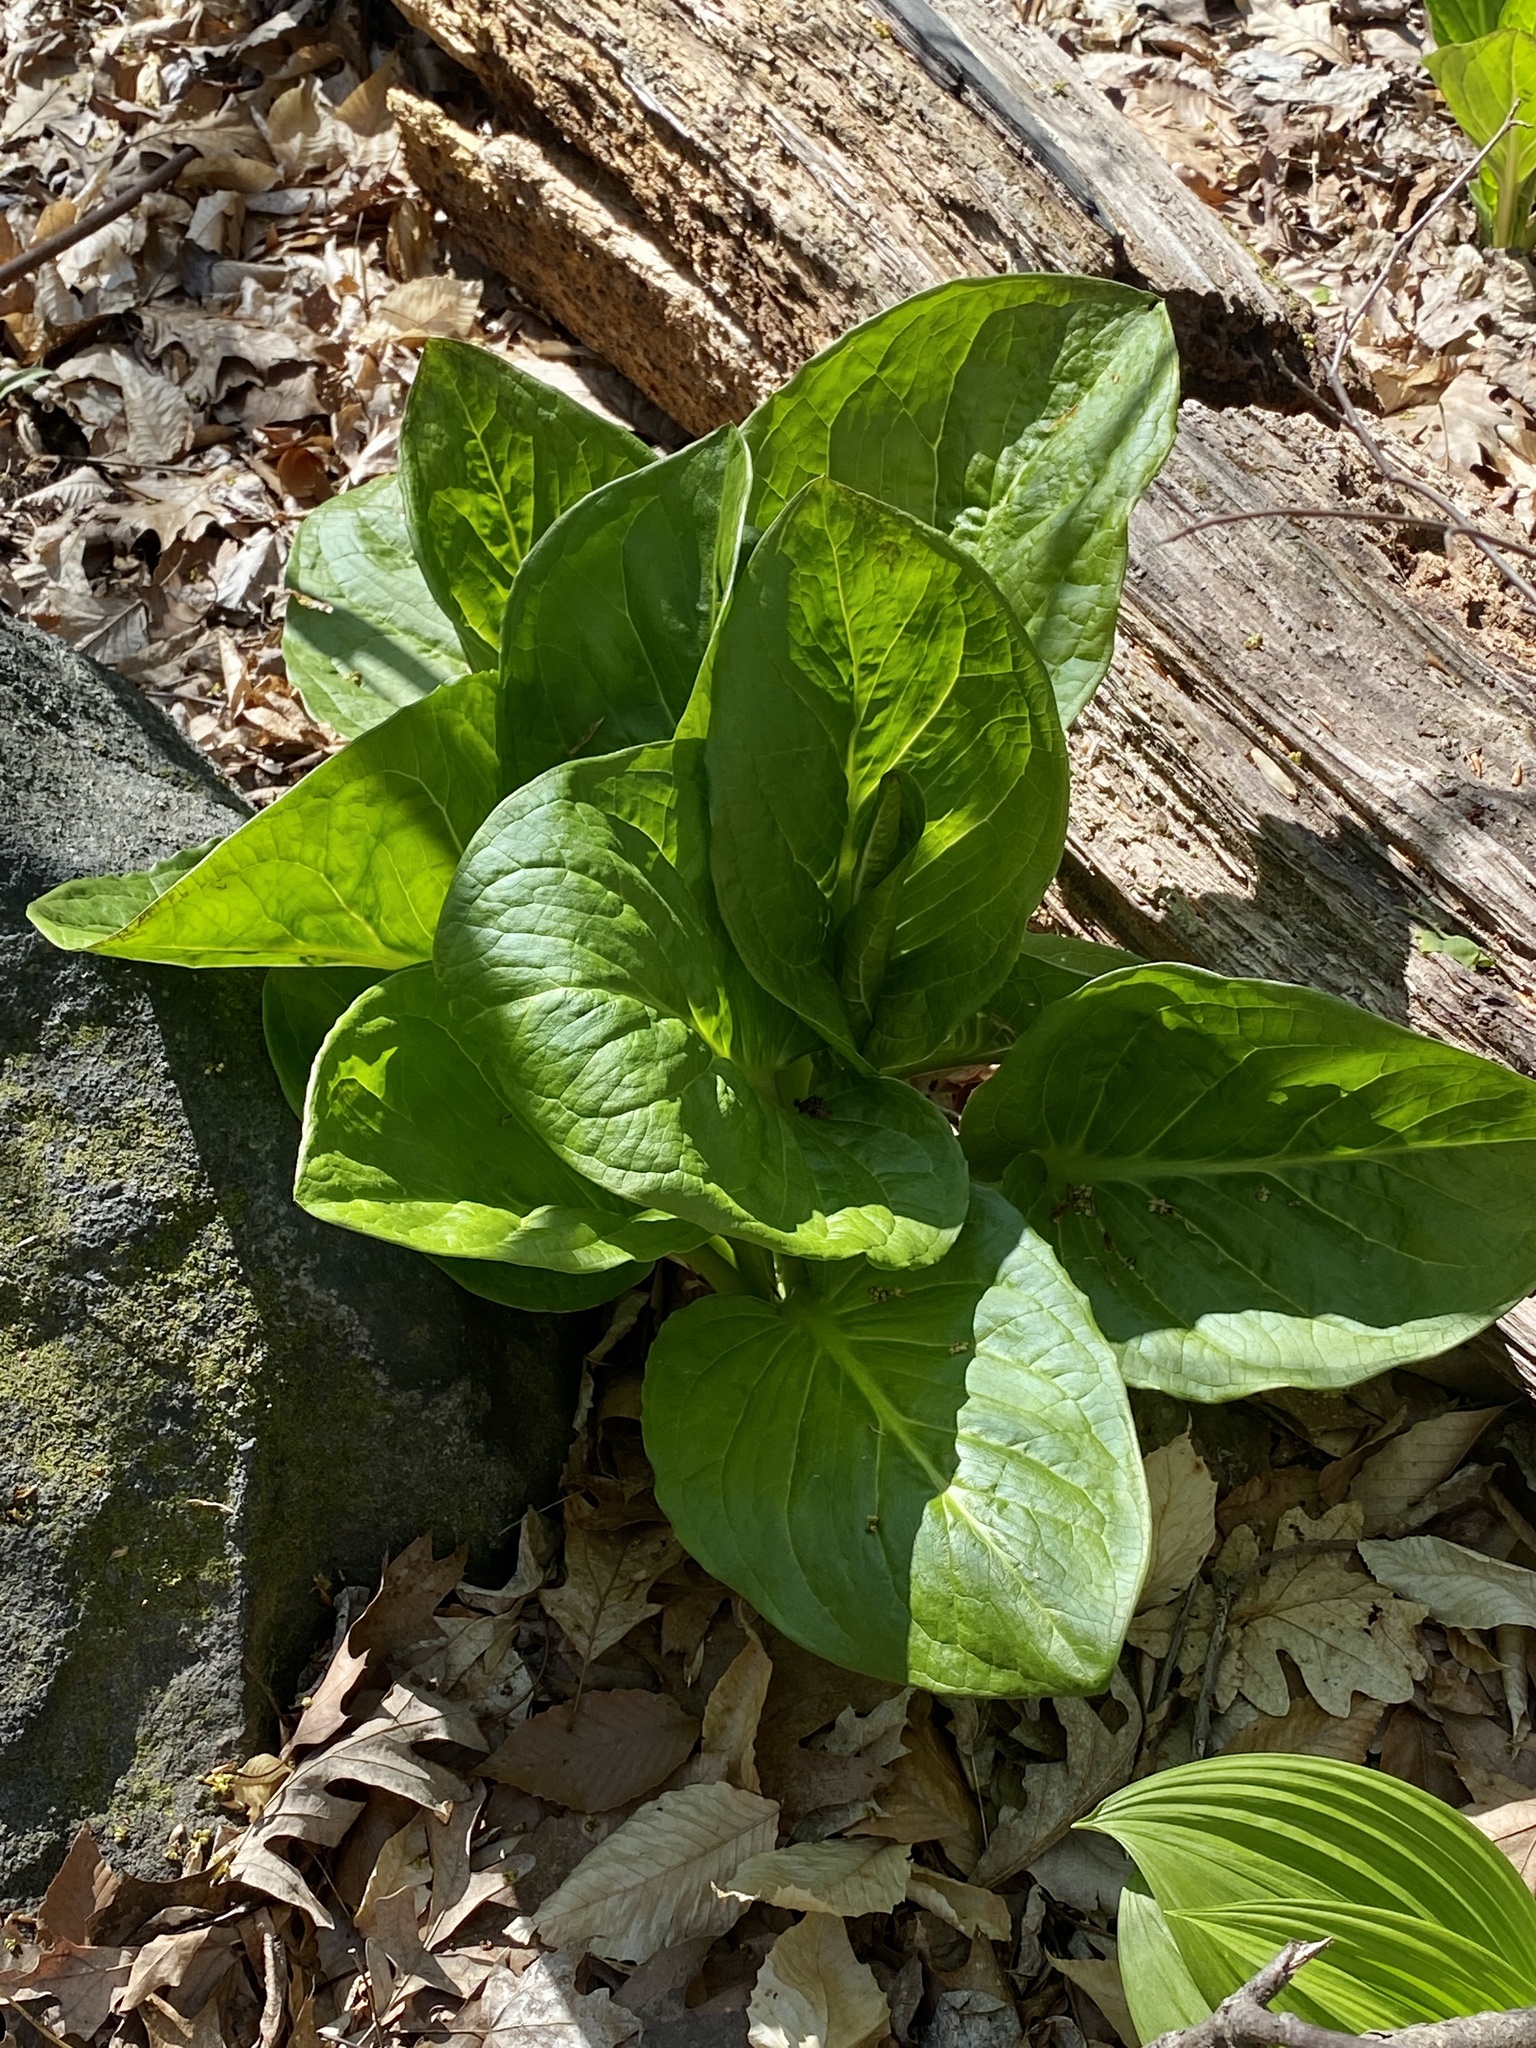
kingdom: Plantae
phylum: Tracheophyta
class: Liliopsida
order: Alismatales
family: Araceae
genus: Symplocarpus
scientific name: Symplocarpus foetidus
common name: Eastern skunk cabbage
